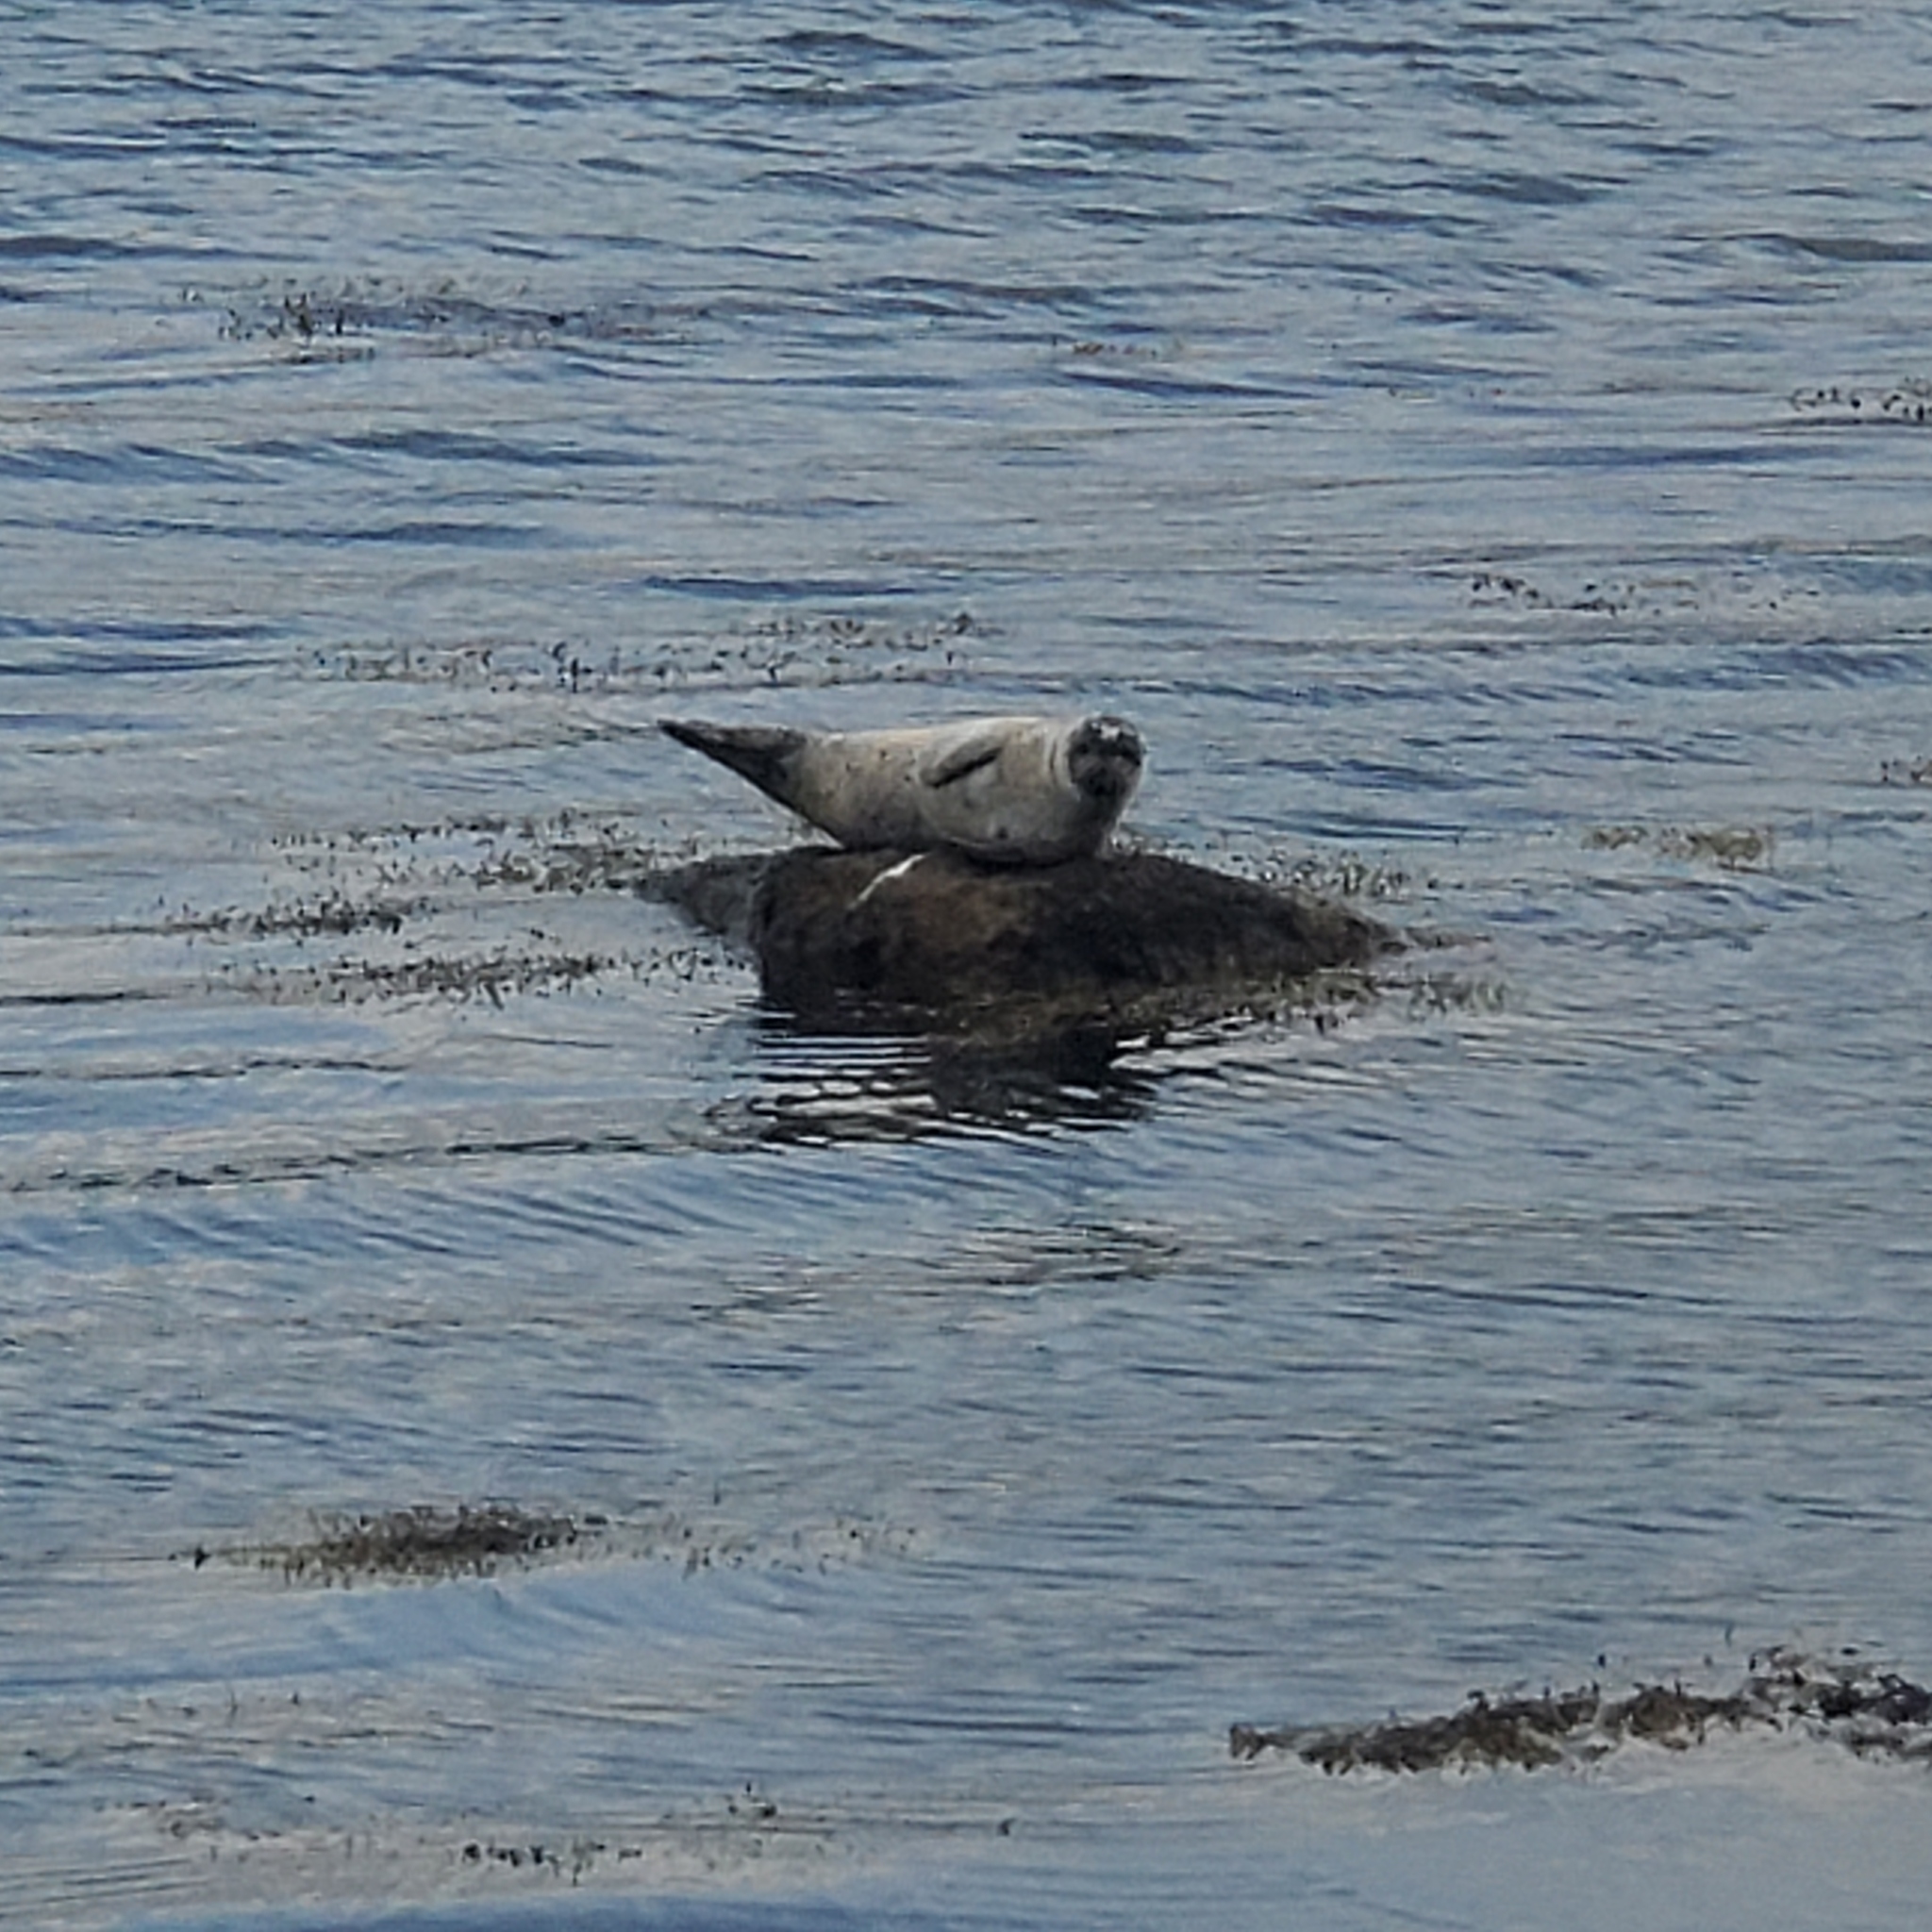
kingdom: Animalia
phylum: Chordata
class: Mammalia
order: Carnivora
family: Phocidae
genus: Phoca
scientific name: Phoca vitulina
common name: Harbor seal
